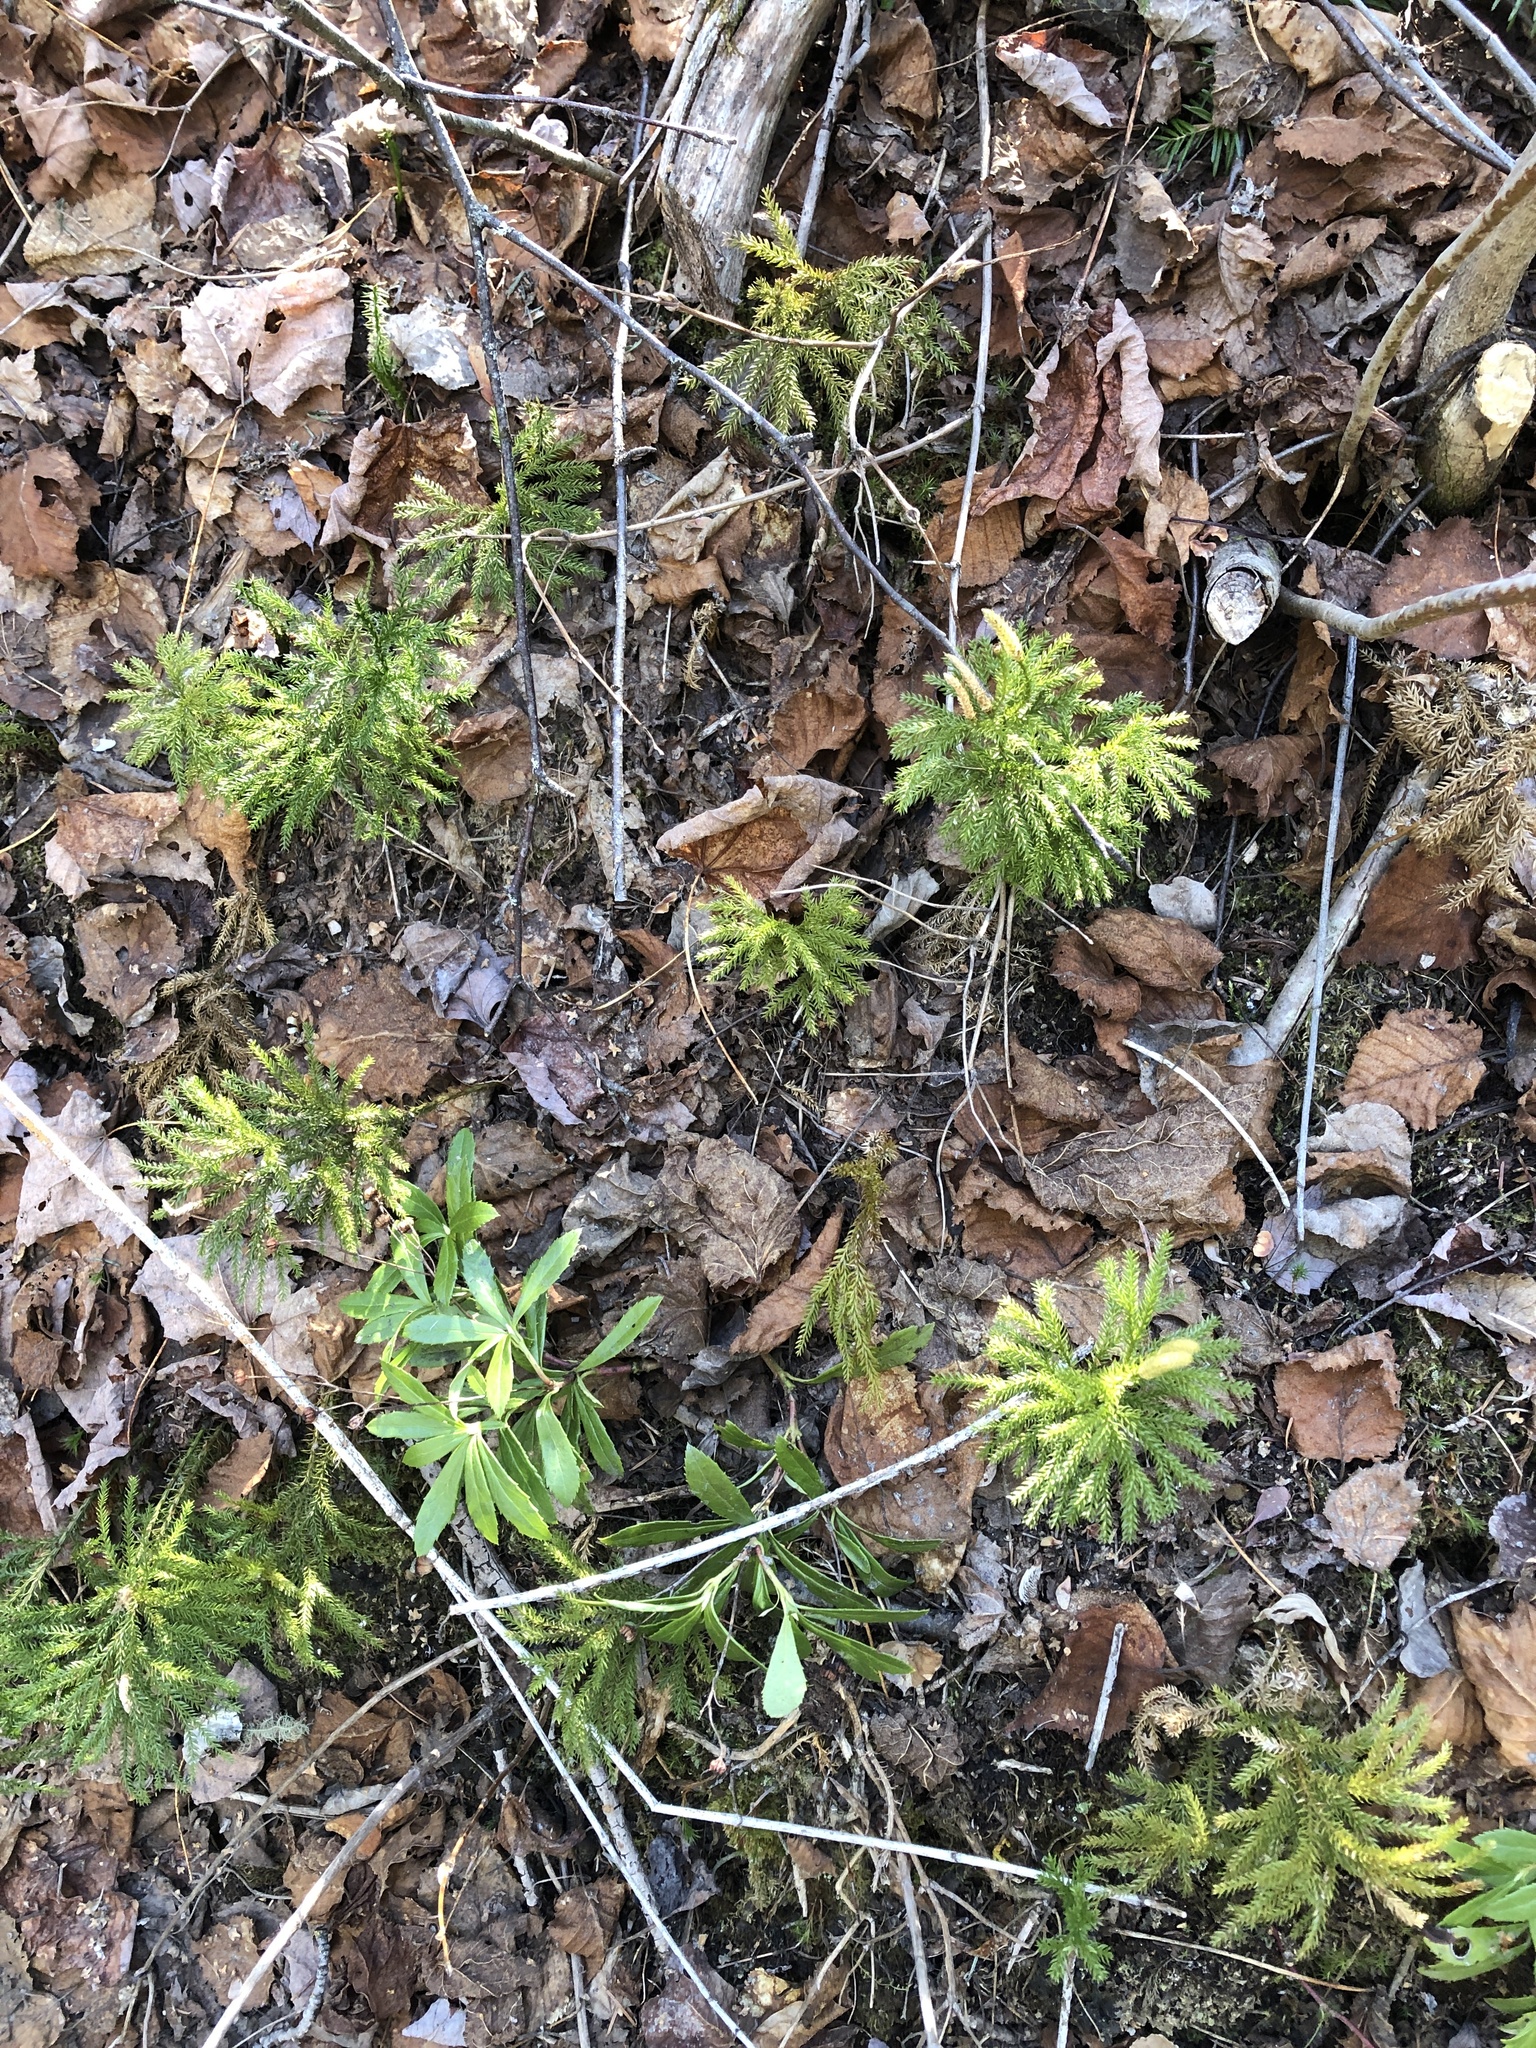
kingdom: Plantae
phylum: Tracheophyta
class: Lycopodiopsida
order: Lycopodiales
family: Lycopodiaceae
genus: Dendrolycopodium
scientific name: Dendrolycopodium dendroideum
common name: Northern tree-clubmoss
